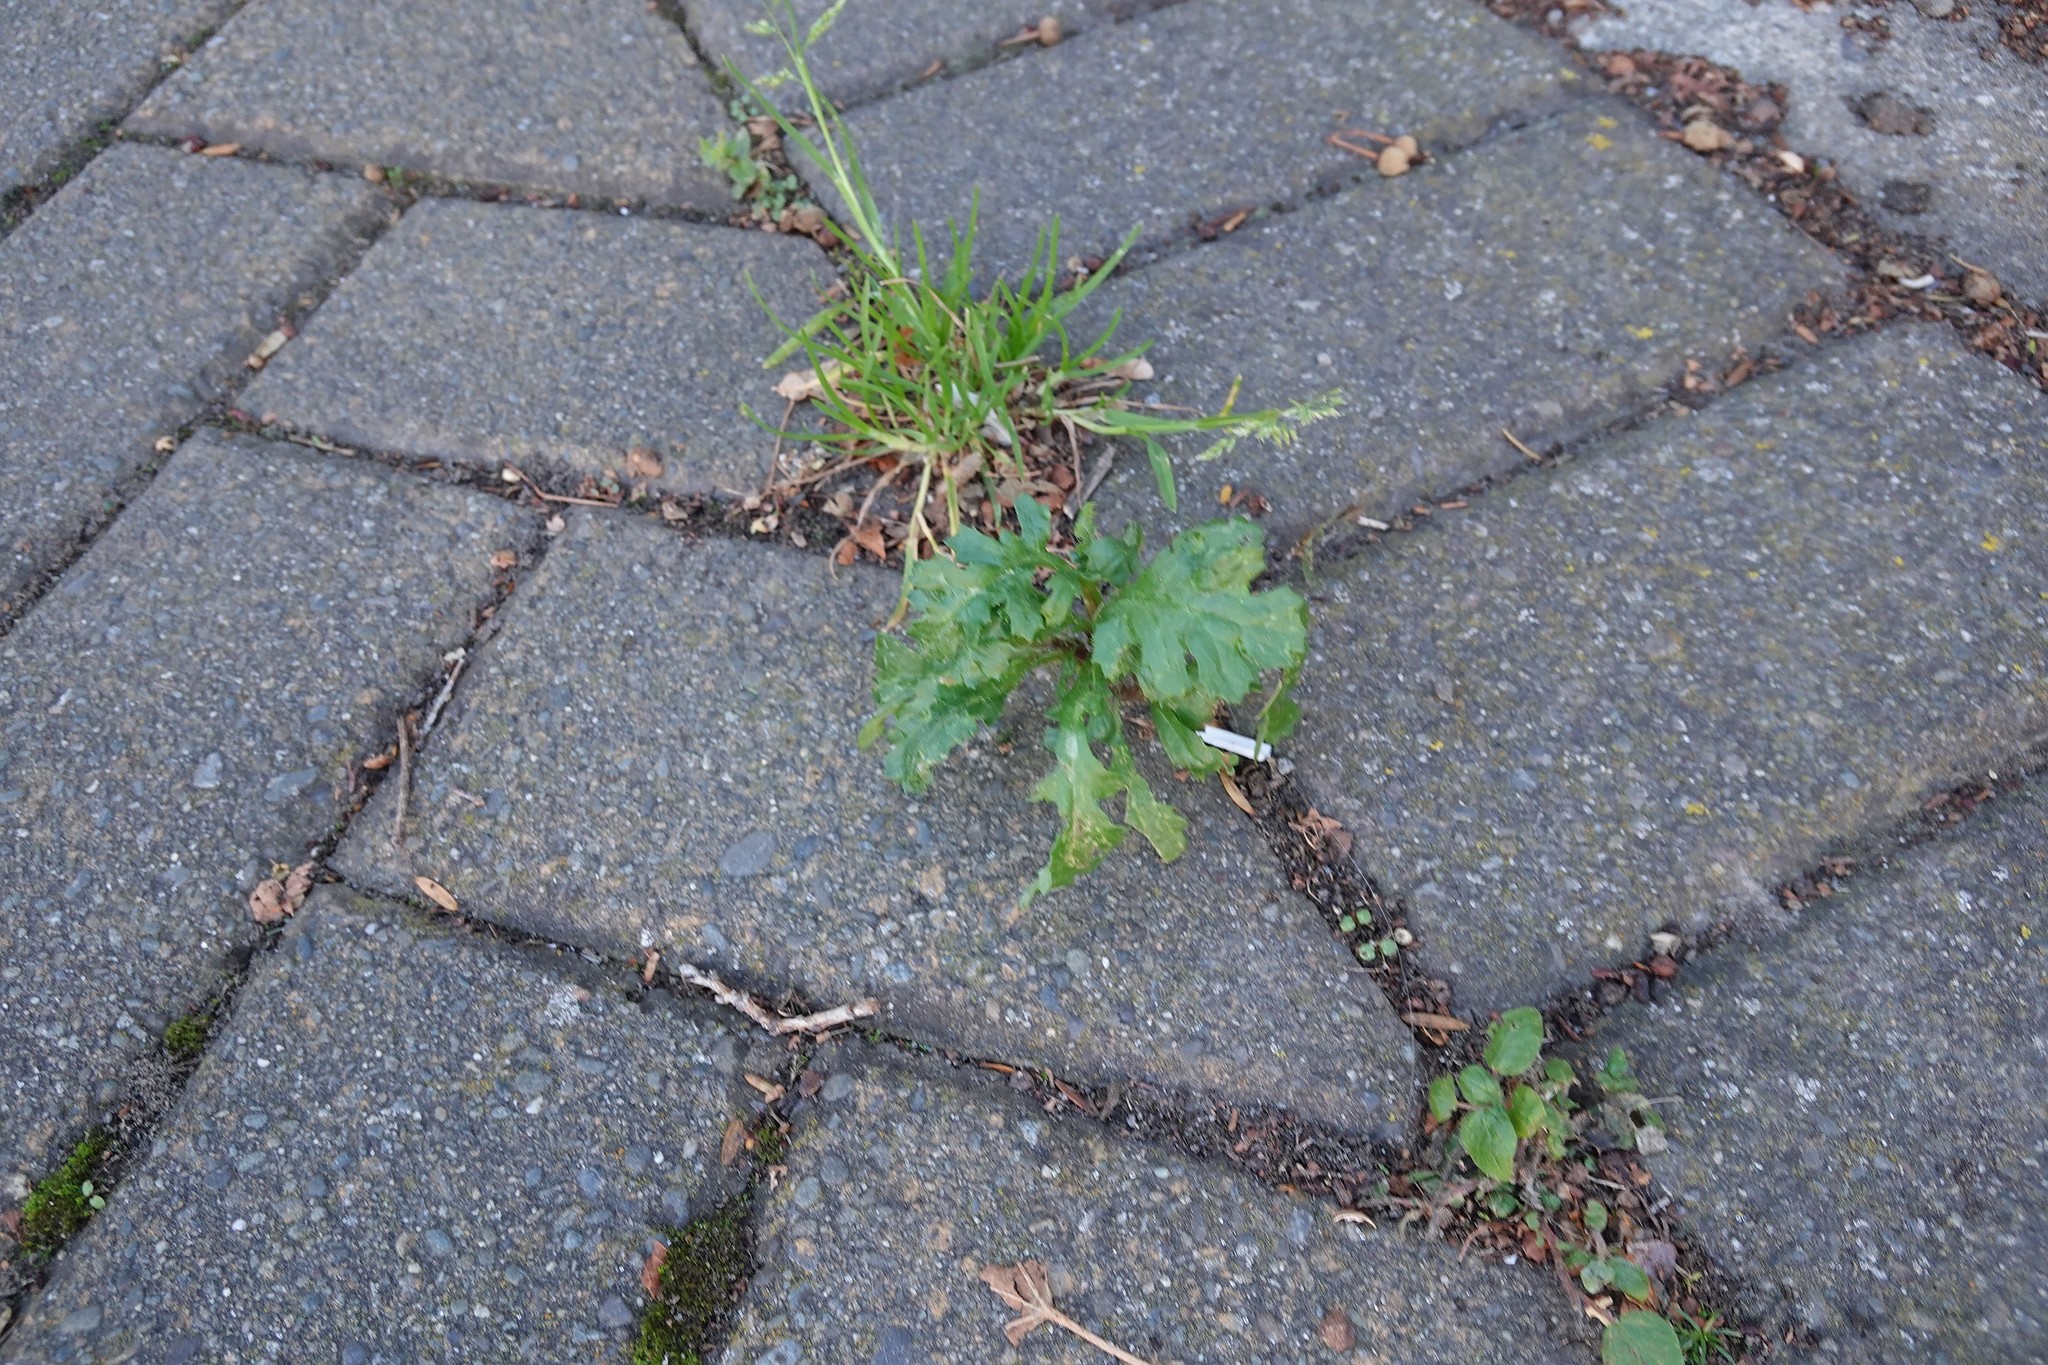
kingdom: Plantae
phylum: Tracheophyta
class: Magnoliopsida
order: Asterales
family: Asteraceae
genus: Senecio
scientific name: Senecio vulgaris
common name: Old-man-in-the-spring
